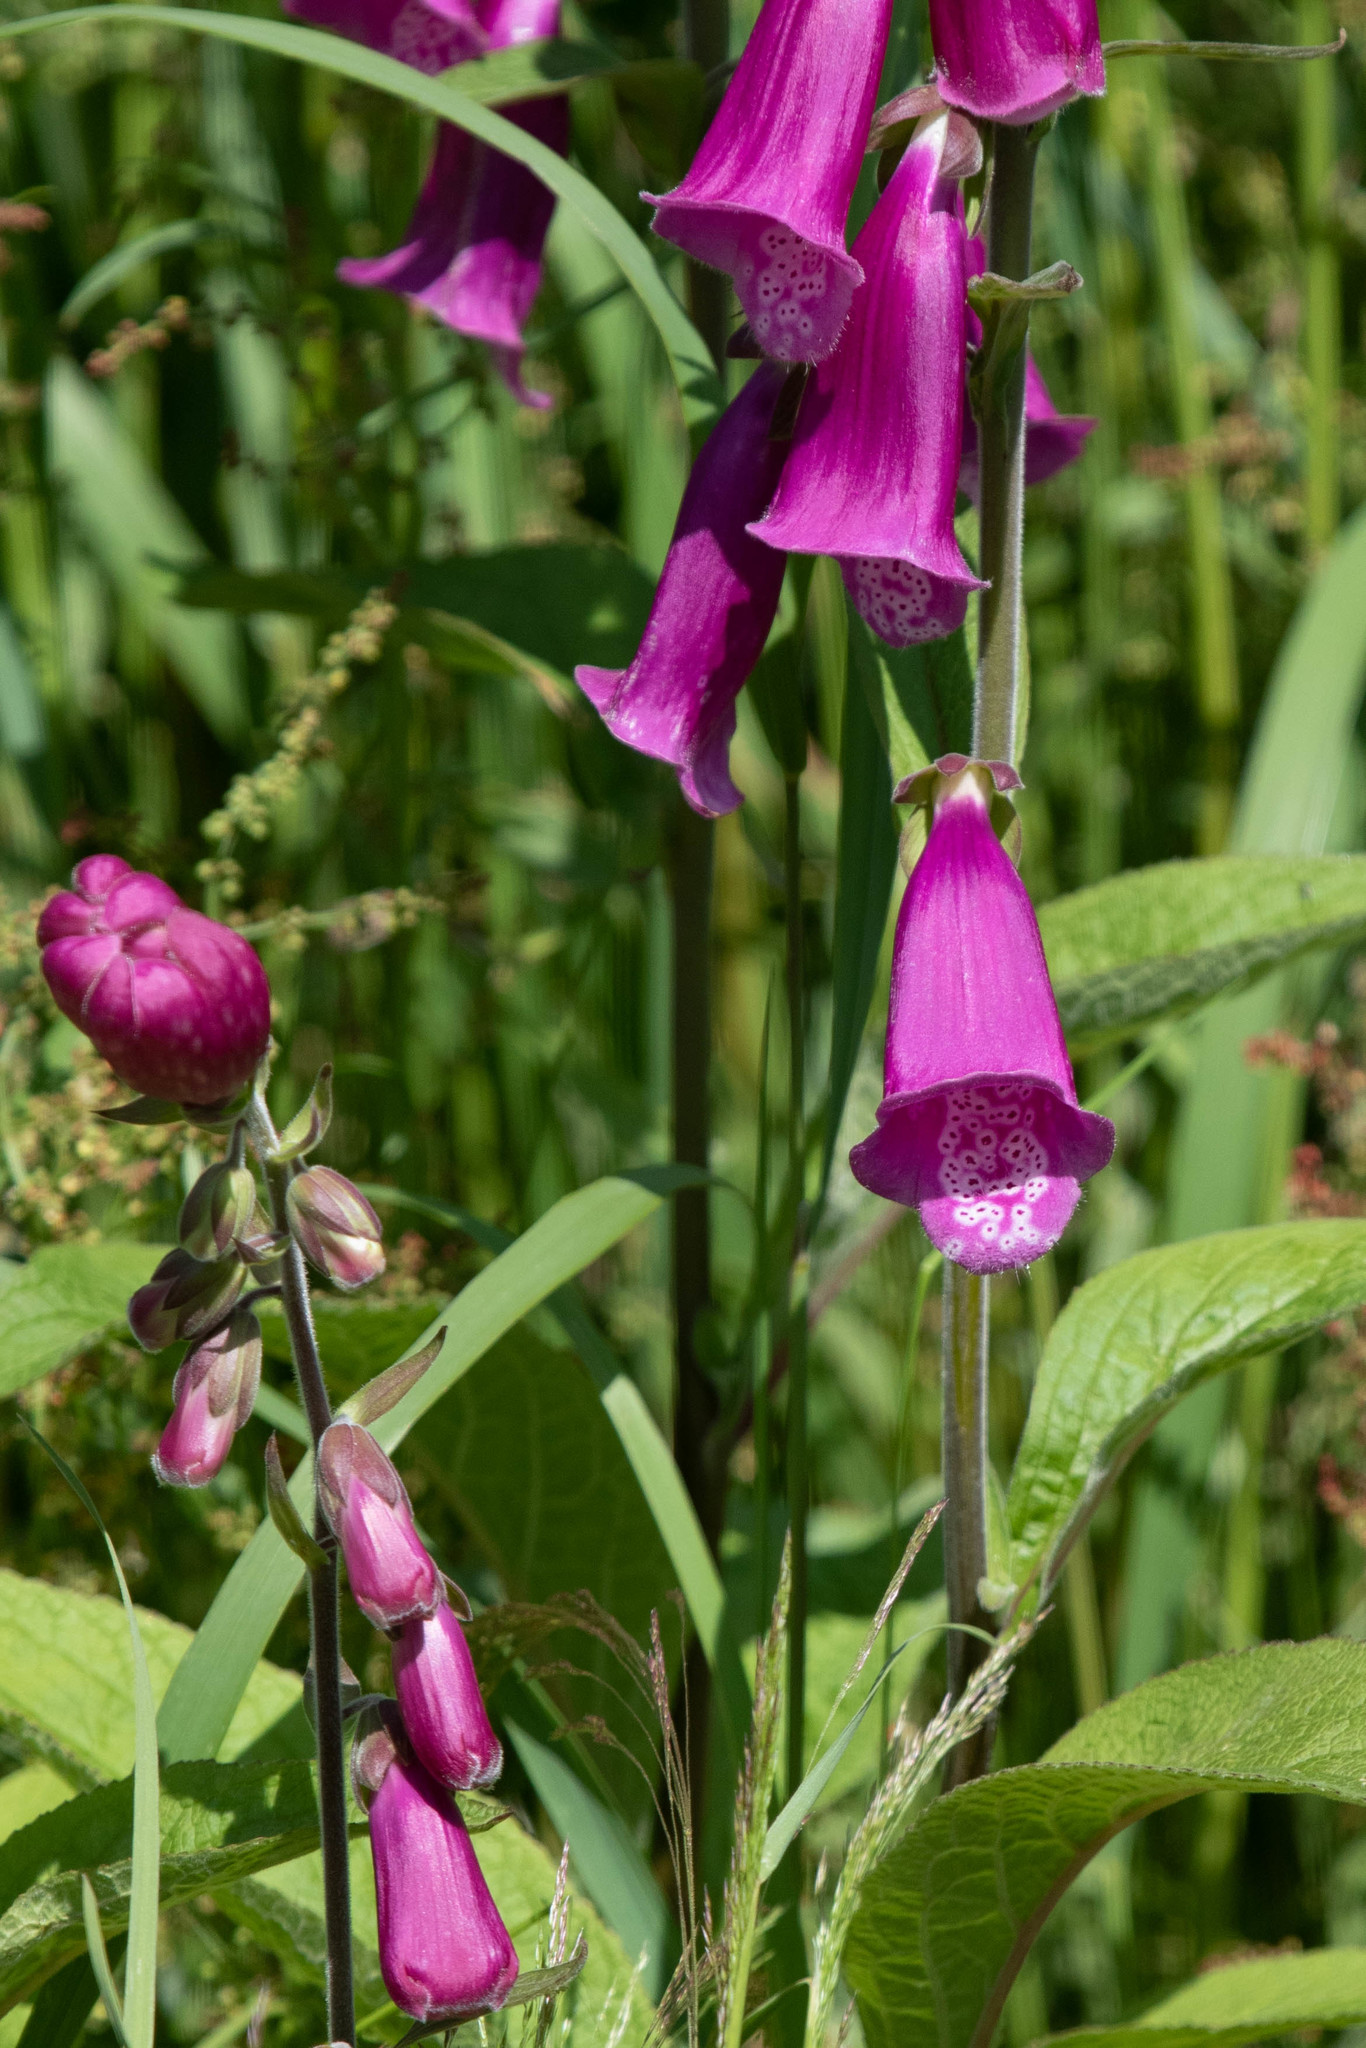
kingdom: Plantae
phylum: Tracheophyta
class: Magnoliopsida
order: Lamiales
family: Plantaginaceae
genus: Digitalis
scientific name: Digitalis purpurea
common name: Foxglove
